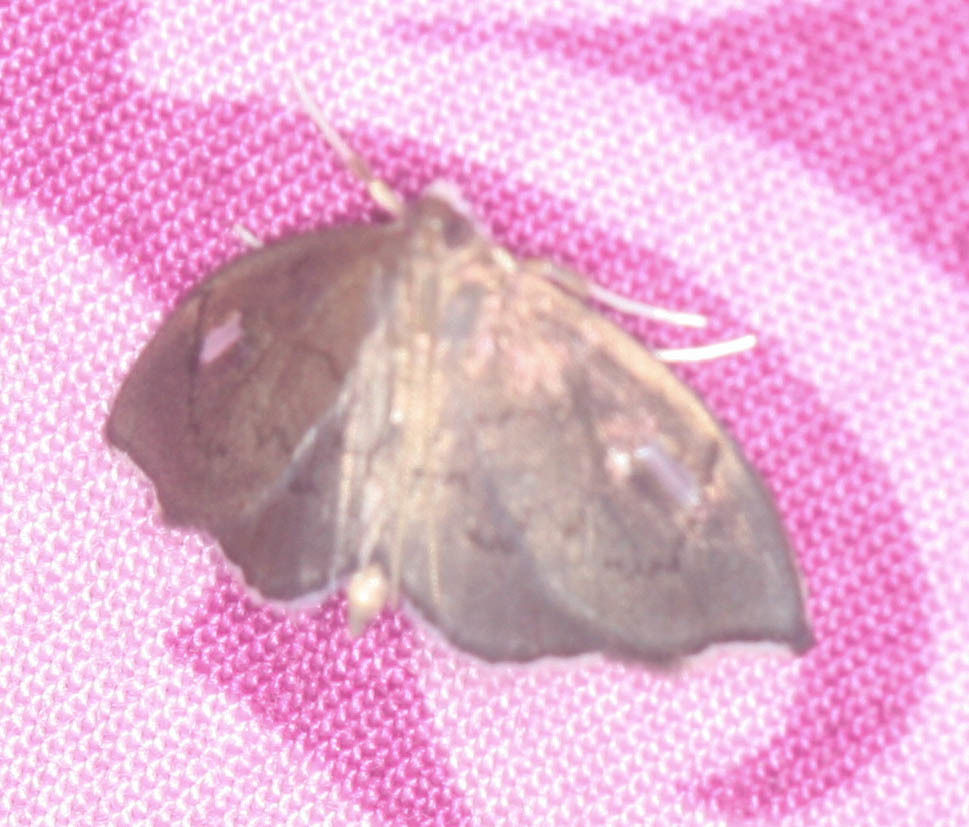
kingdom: Animalia
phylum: Arthropoda
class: Insecta
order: Lepidoptera
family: Crambidae
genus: Perispasta
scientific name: Perispasta caeculalis
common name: Titian peale's moth
